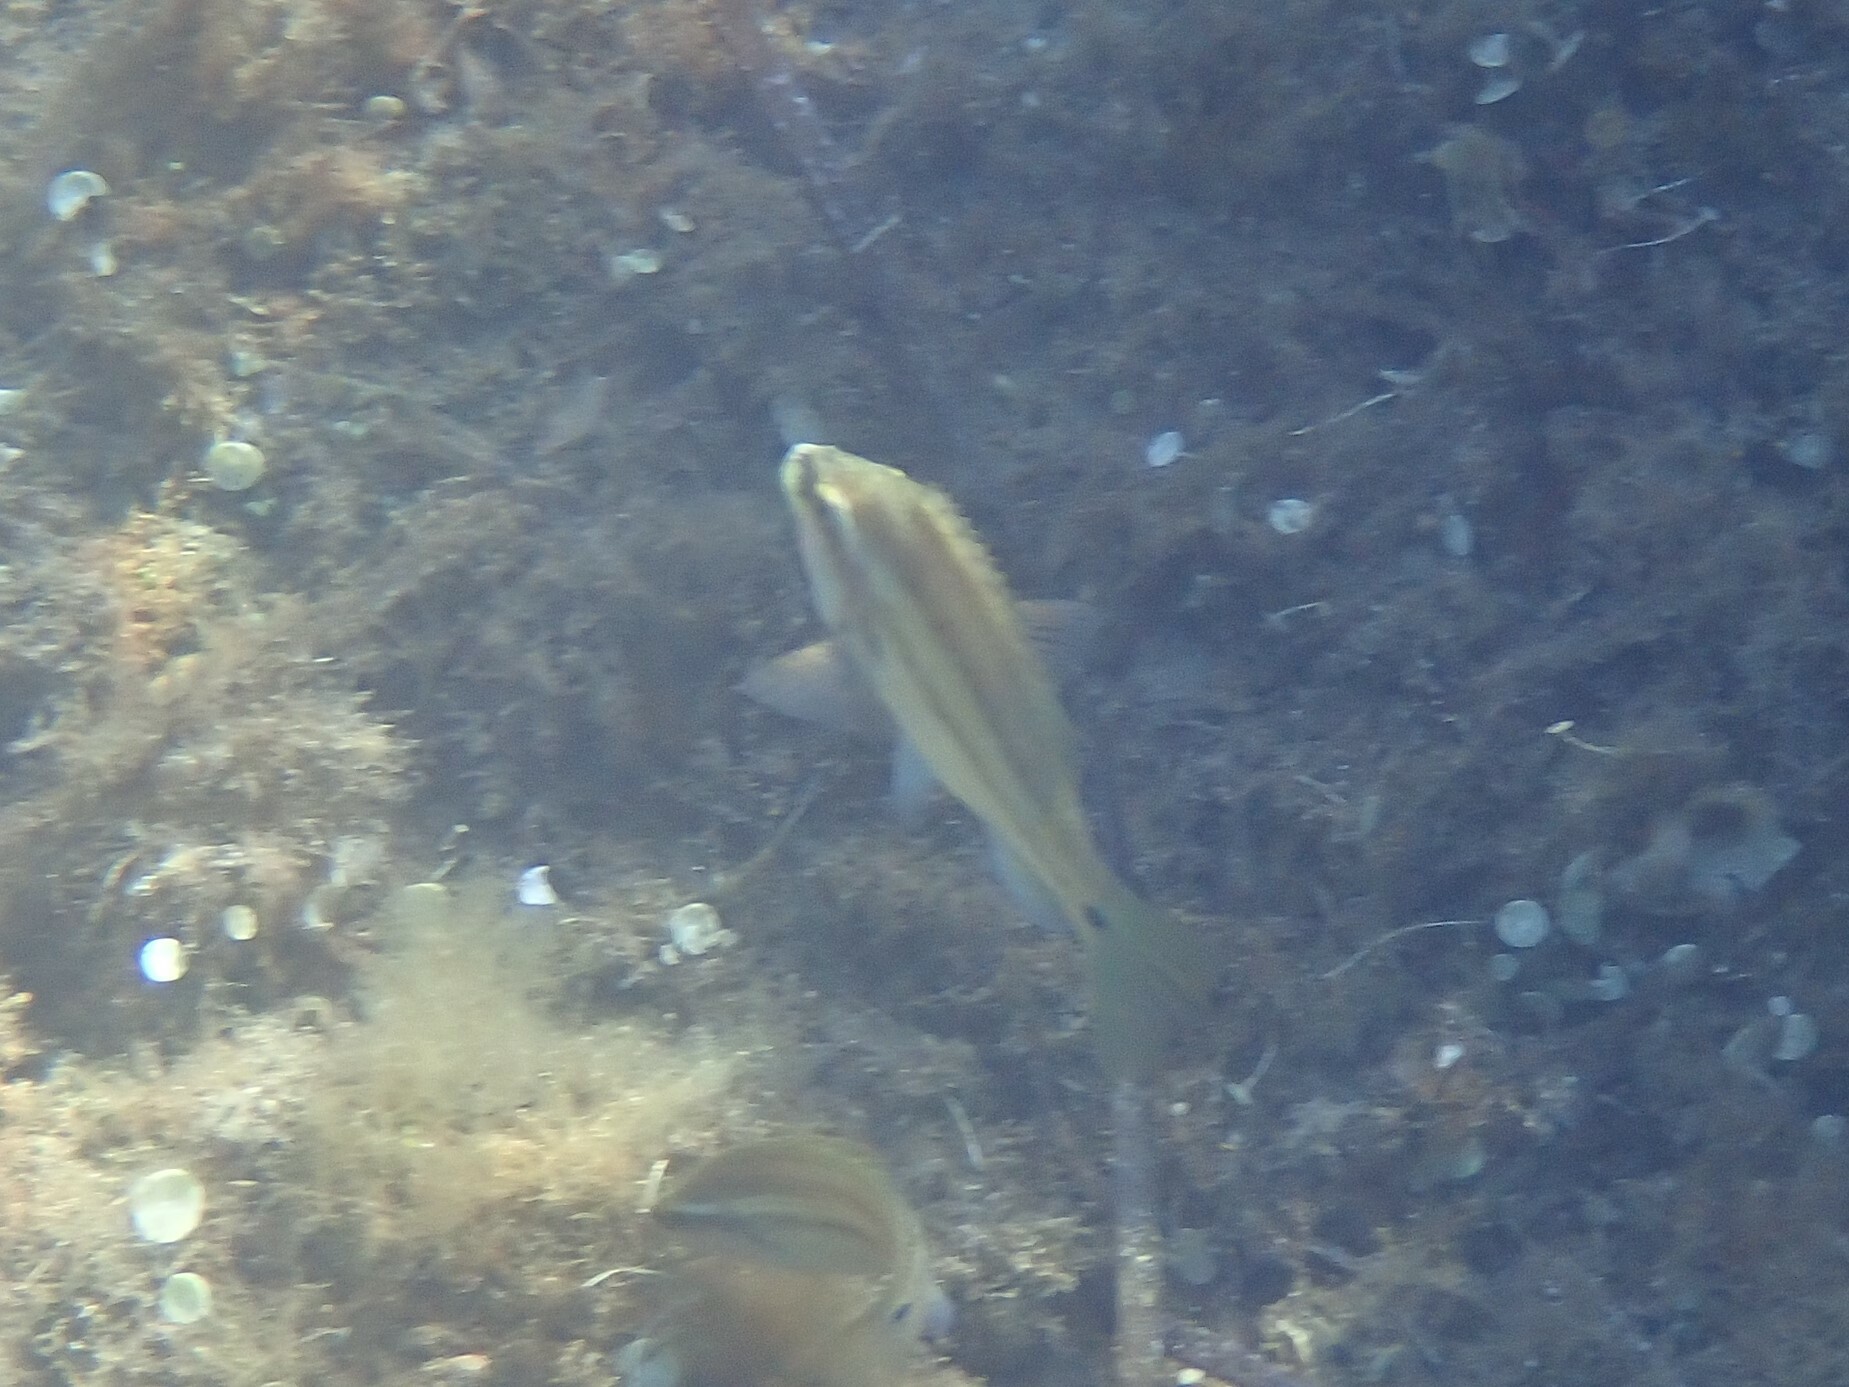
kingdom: Animalia
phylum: Chordata
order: Perciformes
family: Labridae
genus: Symphodus
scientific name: Symphodus tinca
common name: Peacock wrasse
